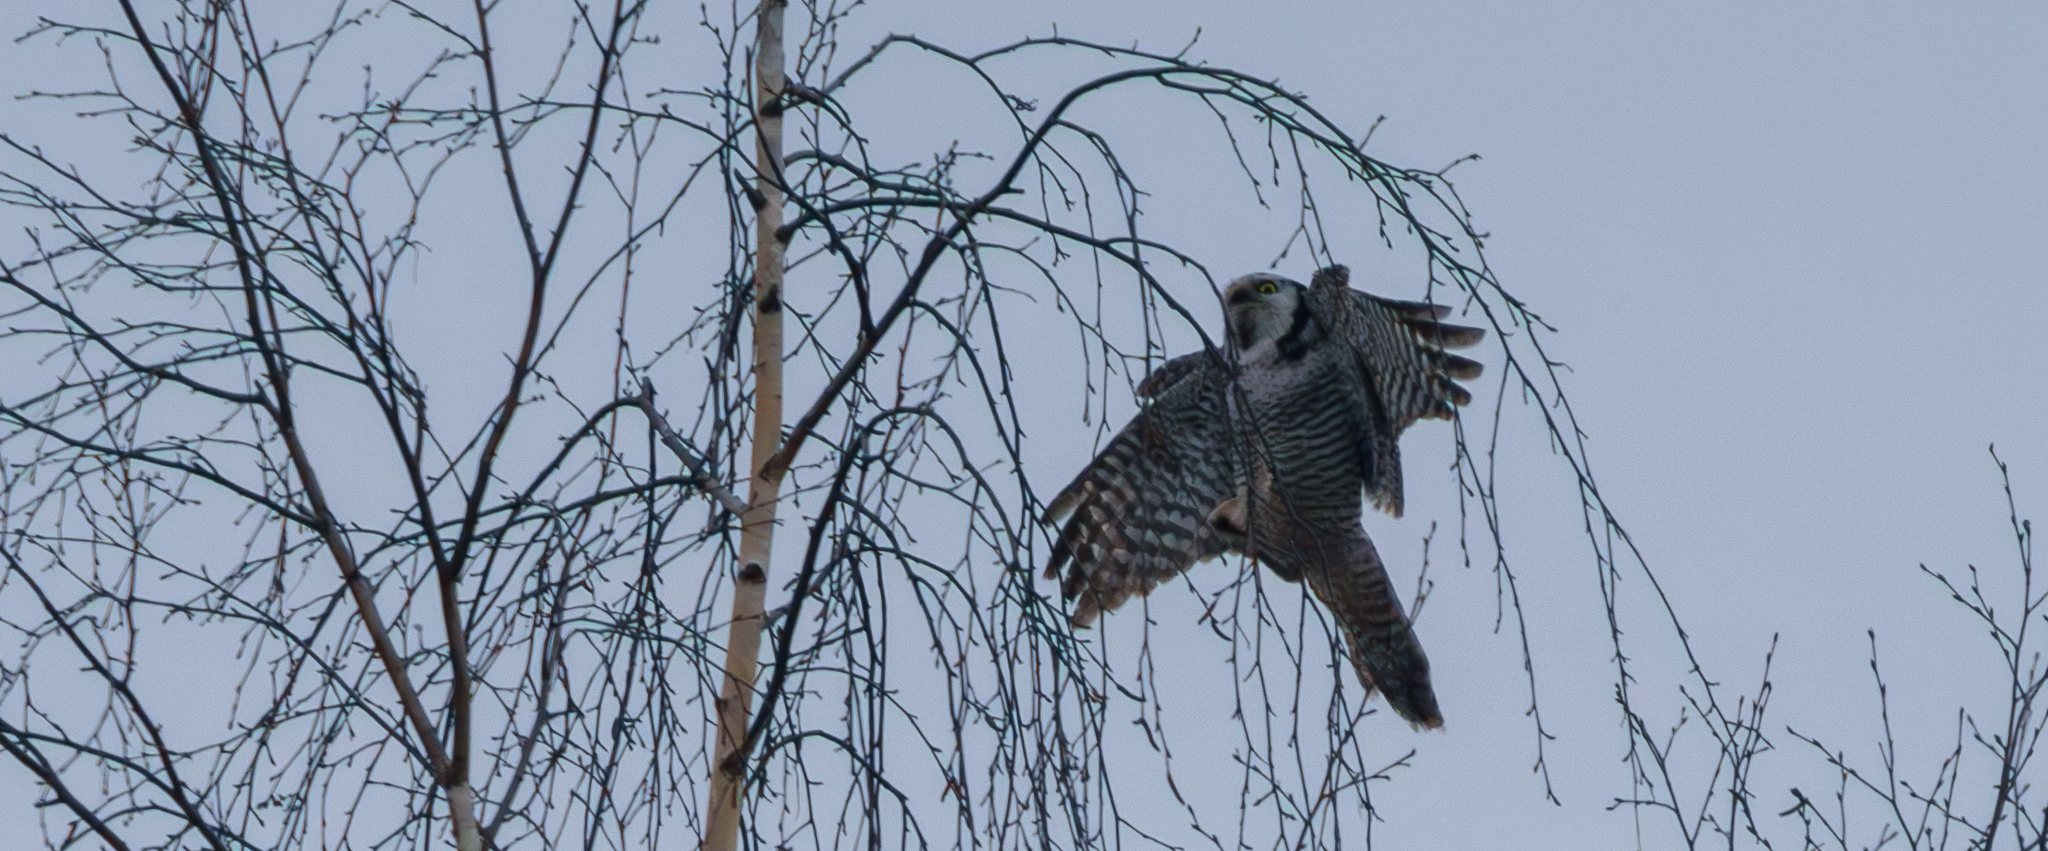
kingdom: Animalia
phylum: Chordata
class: Aves
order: Strigiformes
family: Strigidae
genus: Surnia
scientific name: Surnia ulula
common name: Northern hawk-owl
